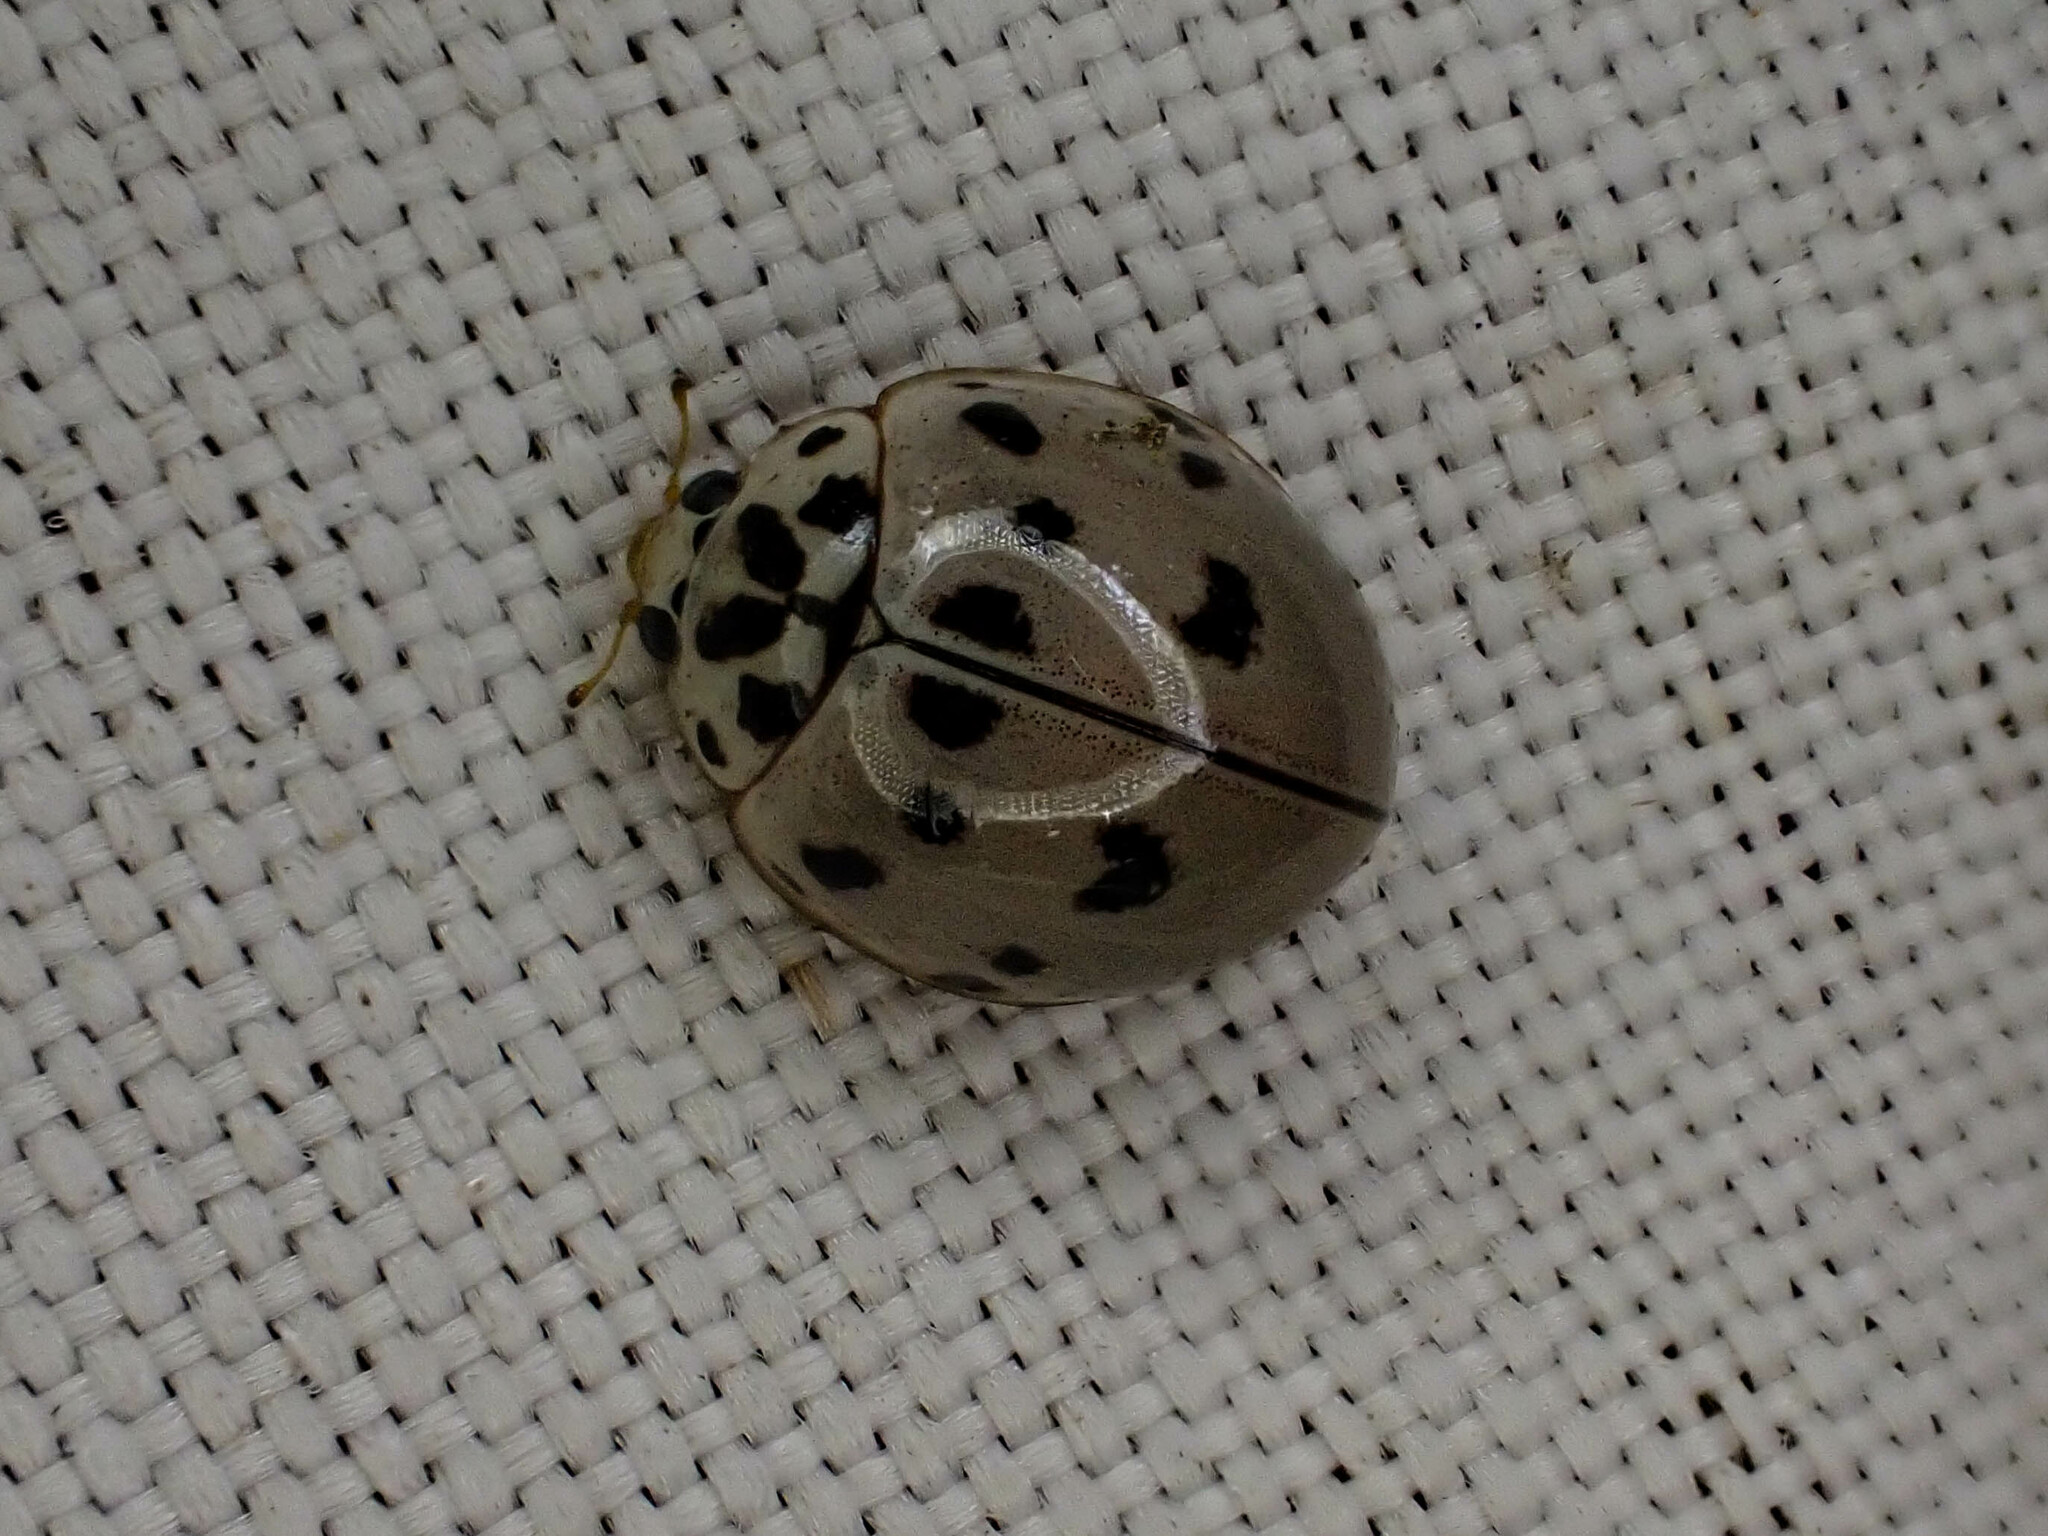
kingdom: Animalia
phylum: Arthropoda
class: Insecta
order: Coleoptera
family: Coccinellidae
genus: Olla
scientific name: Olla v-nigrum
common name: Ashy gray lady beetle
